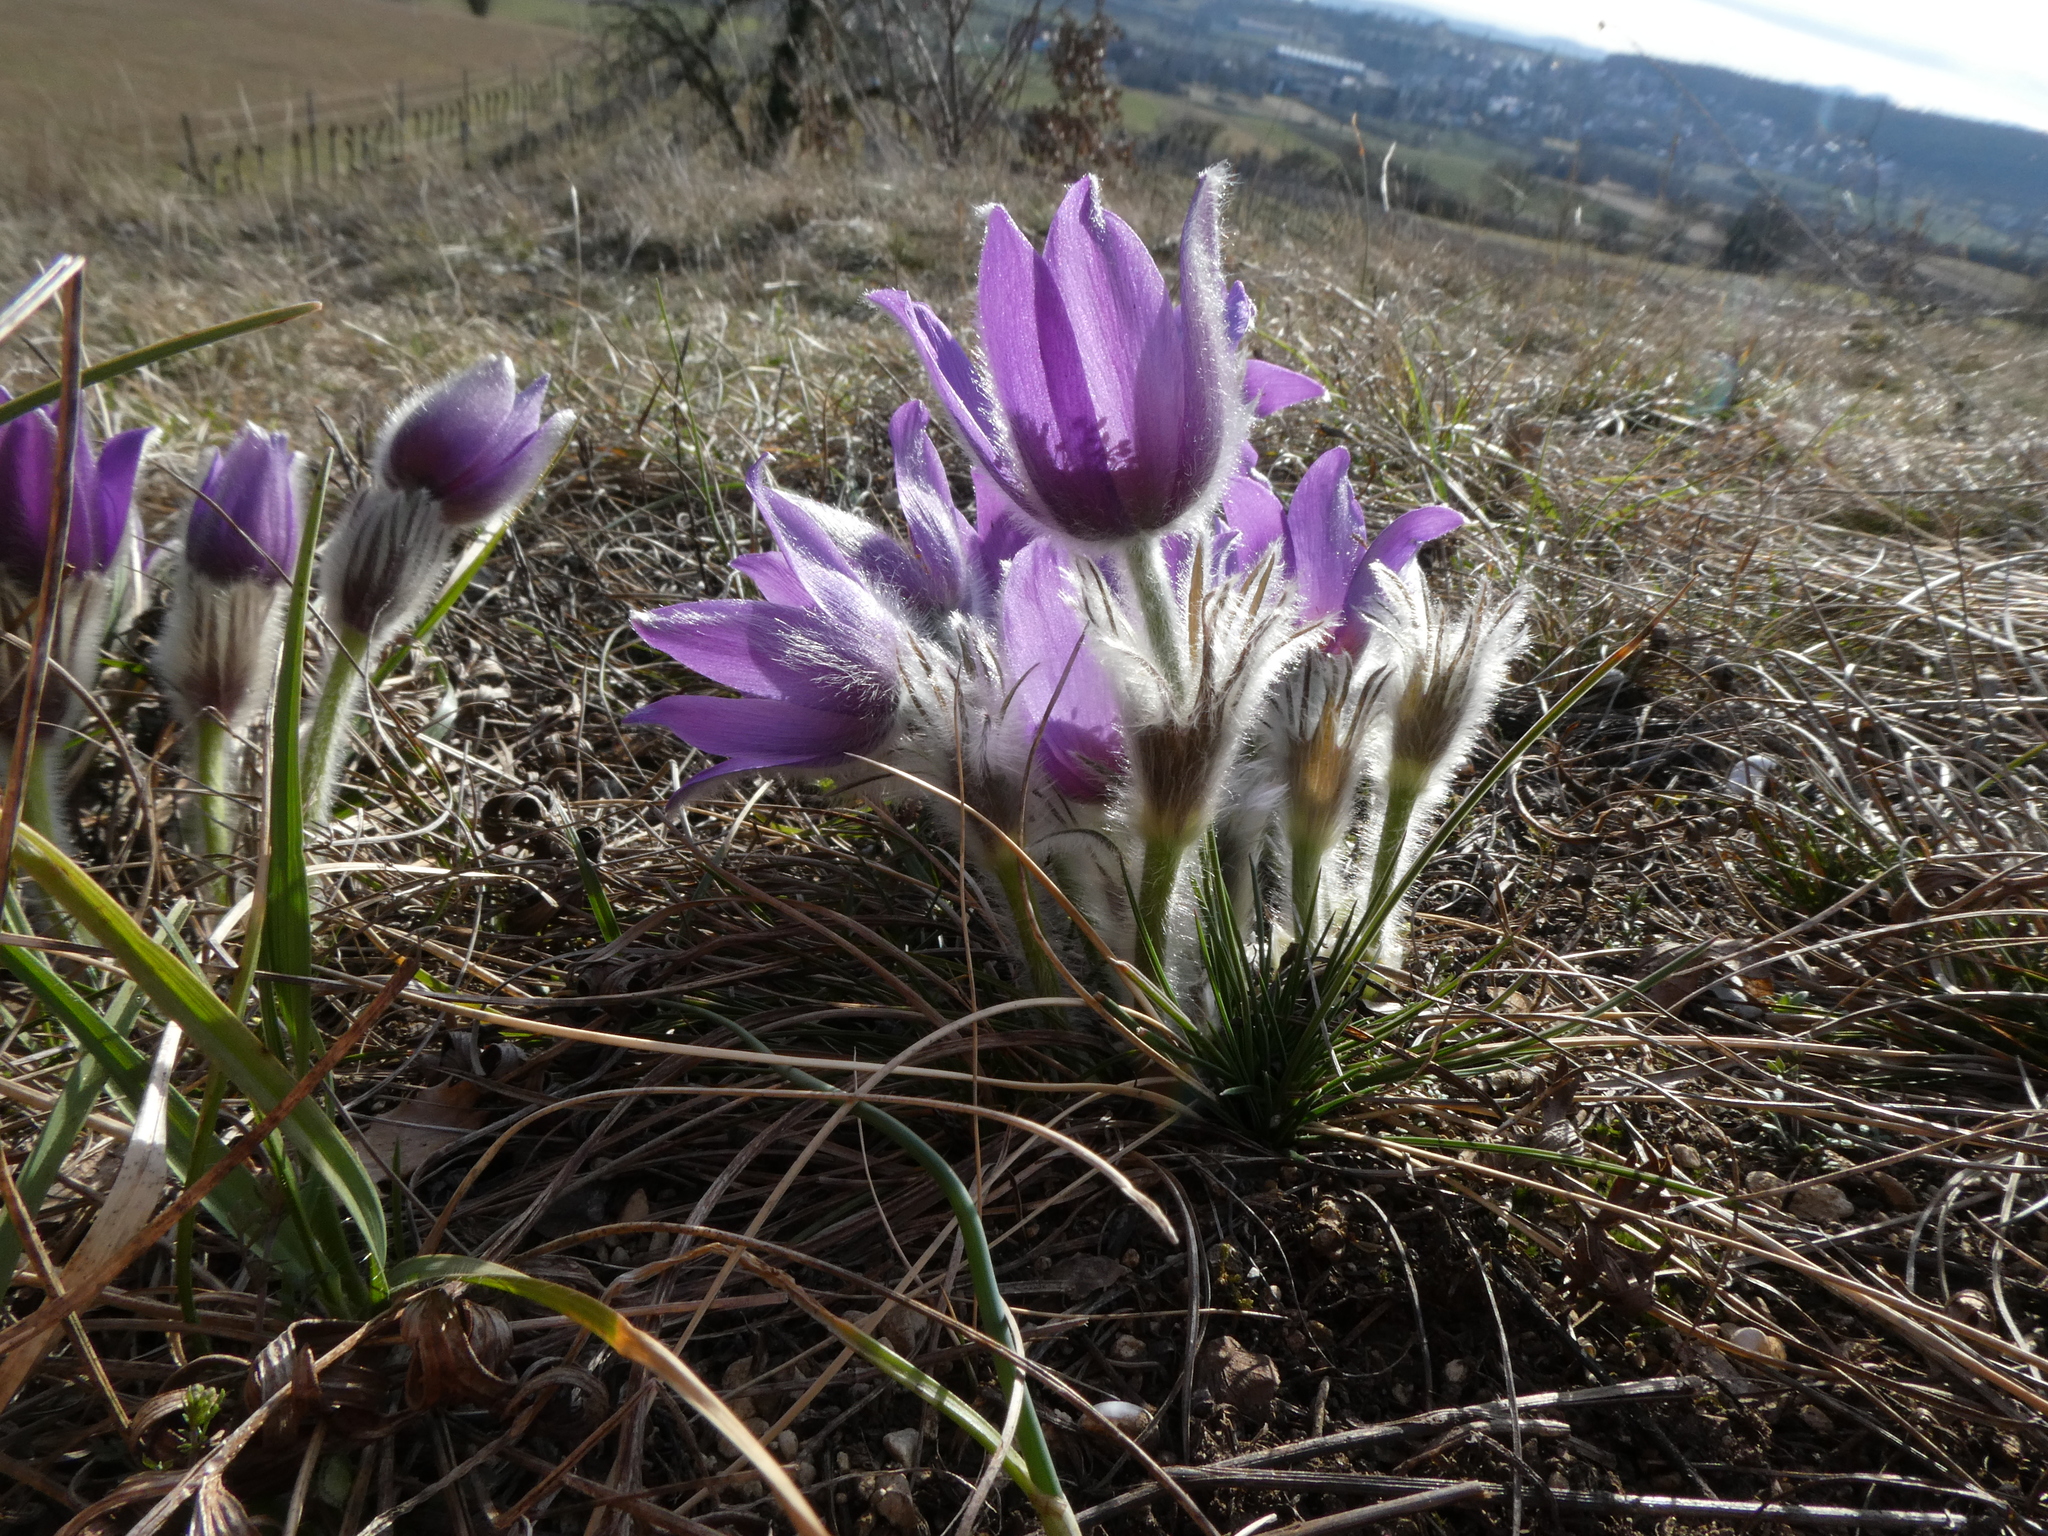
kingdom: Plantae
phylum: Tracheophyta
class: Magnoliopsida
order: Ranunculales
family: Ranunculaceae
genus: Pulsatilla
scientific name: Pulsatilla grandis
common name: Greater pasque flower
